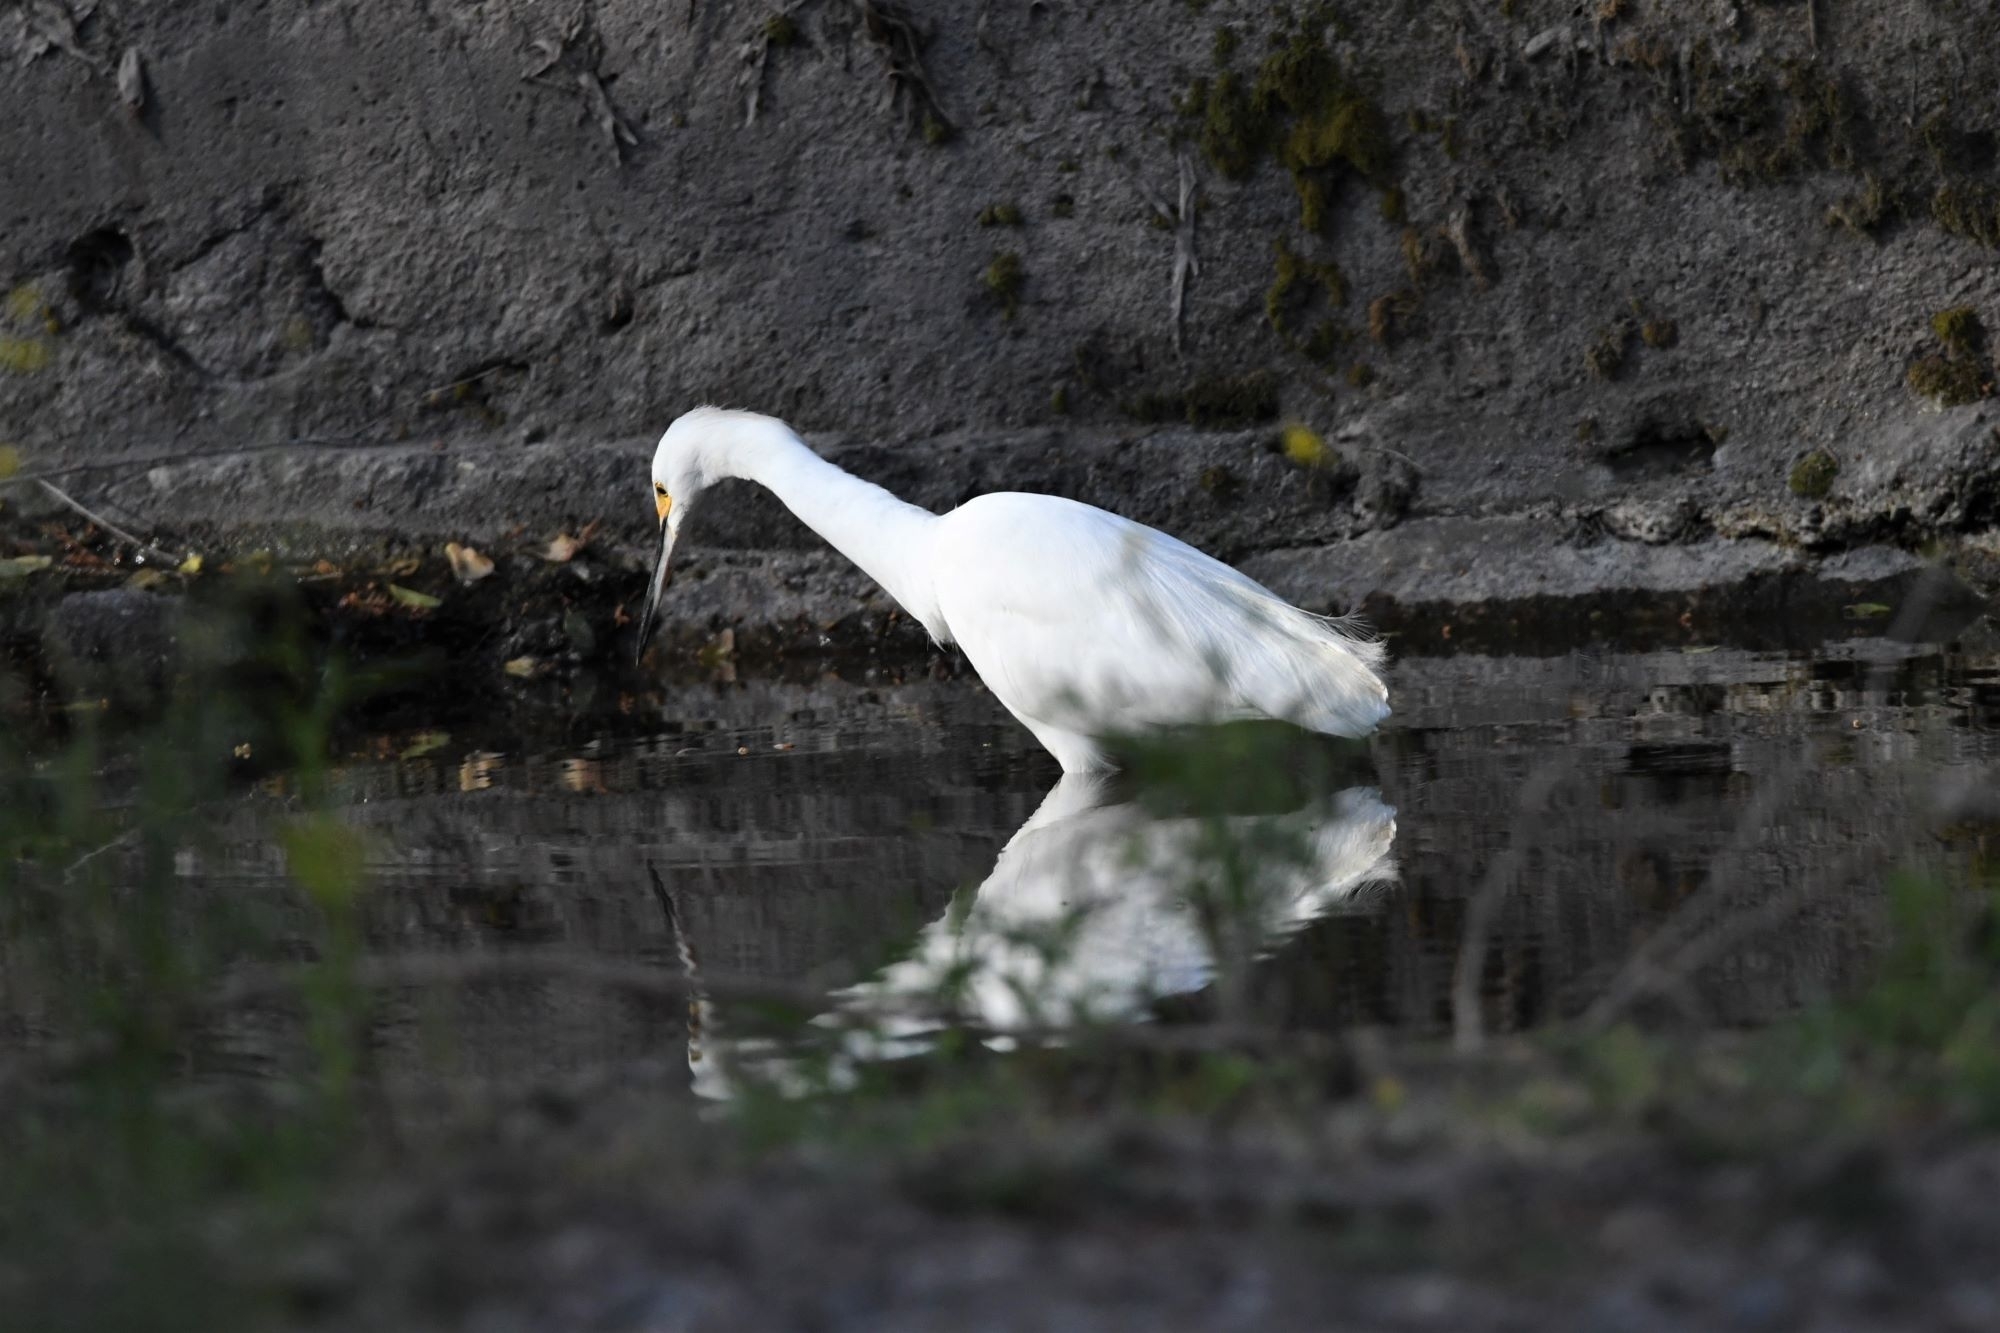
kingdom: Animalia
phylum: Chordata
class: Aves
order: Pelecaniformes
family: Ardeidae
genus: Egretta
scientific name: Egretta thula
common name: Snowy egret
